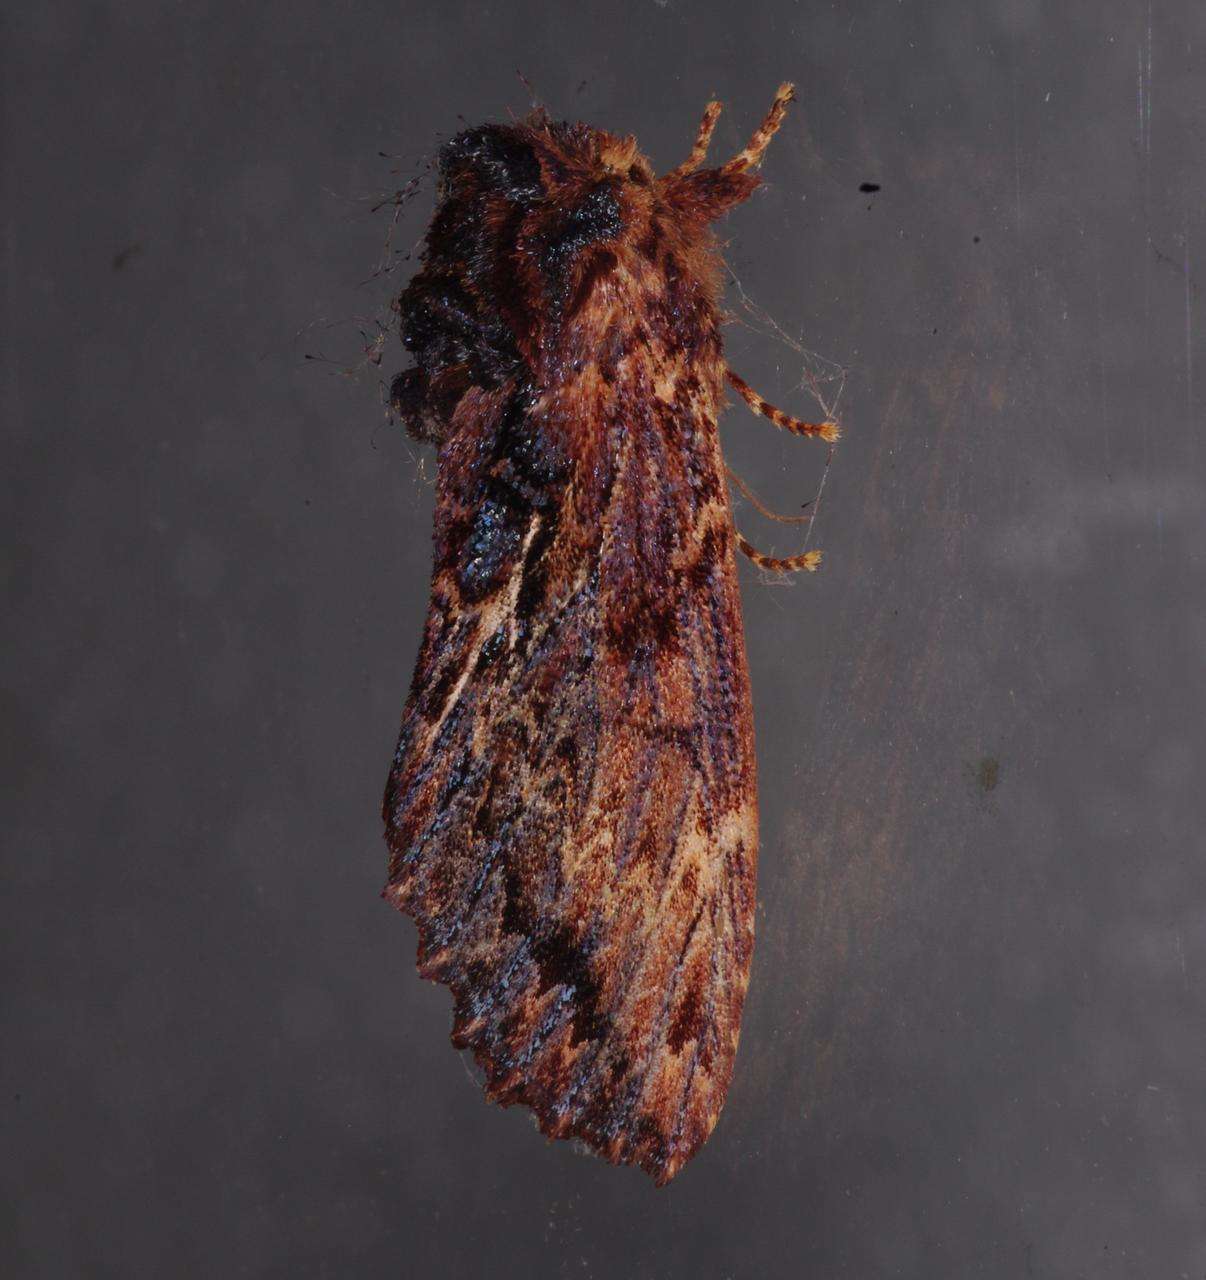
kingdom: Animalia
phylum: Arthropoda
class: Insecta
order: Lepidoptera
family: Notodontidae
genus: Sorama
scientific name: Sorama bicolor
